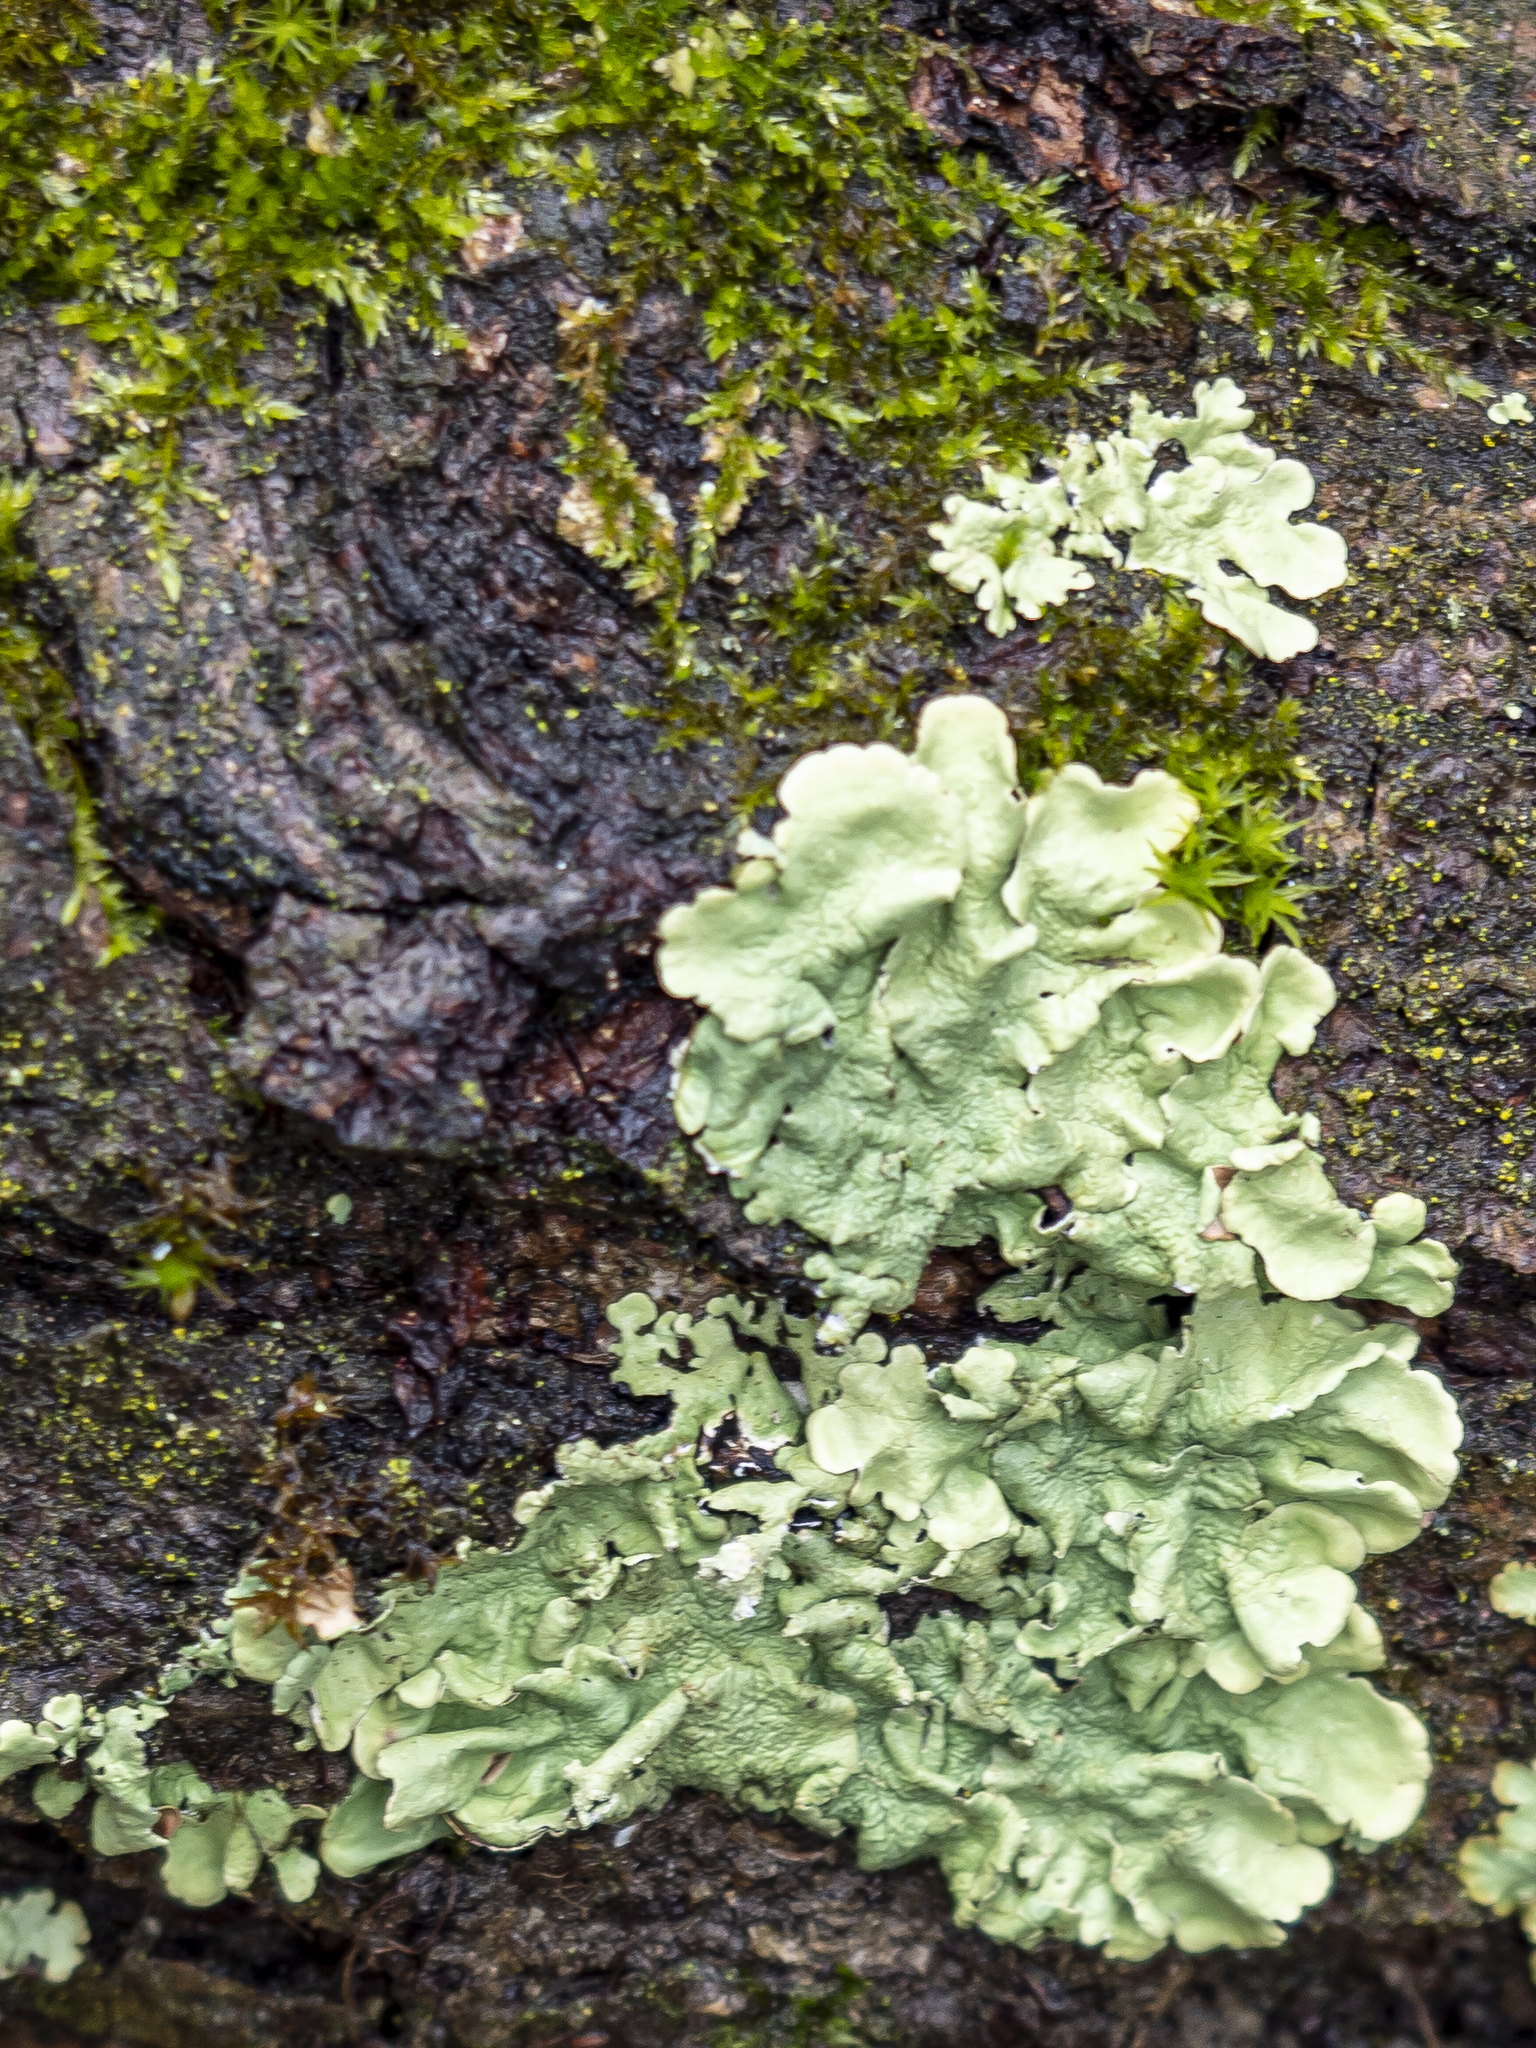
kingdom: Fungi
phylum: Ascomycota
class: Lecanoromycetes
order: Lecanorales
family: Parmeliaceae
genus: Flavoparmelia
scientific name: Flavoparmelia caperata
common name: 40-mile per hour lichen
